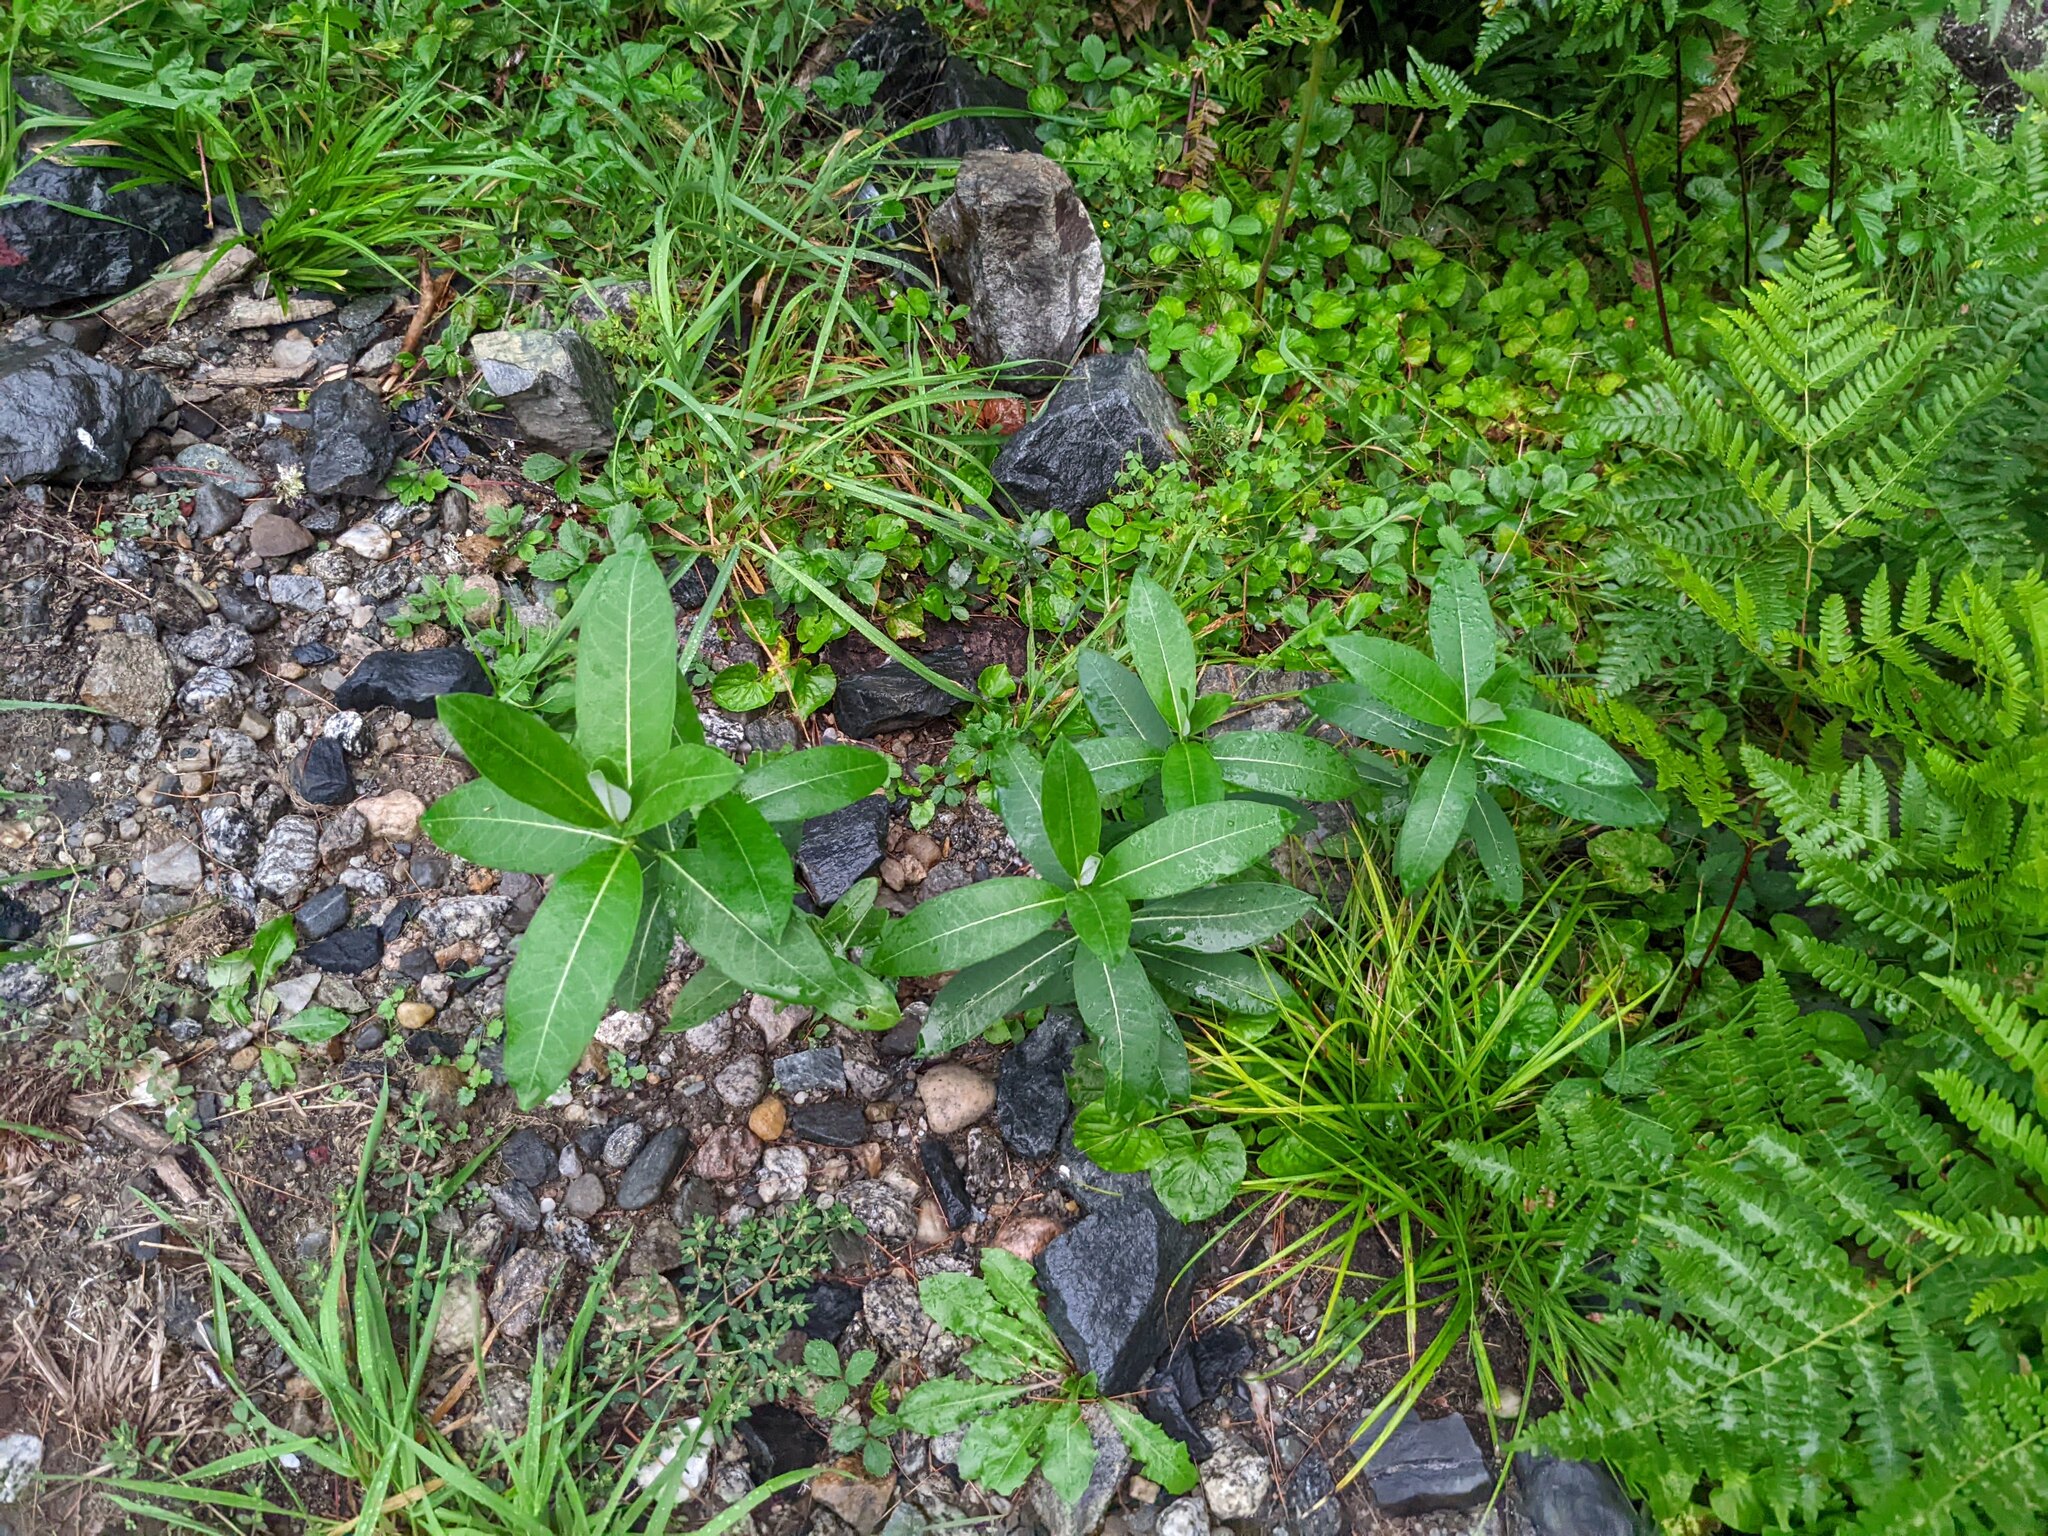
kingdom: Plantae
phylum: Tracheophyta
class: Magnoliopsida
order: Gentianales
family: Apocynaceae
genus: Asclepias
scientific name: Asclepias syriaca
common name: Common milkweed
